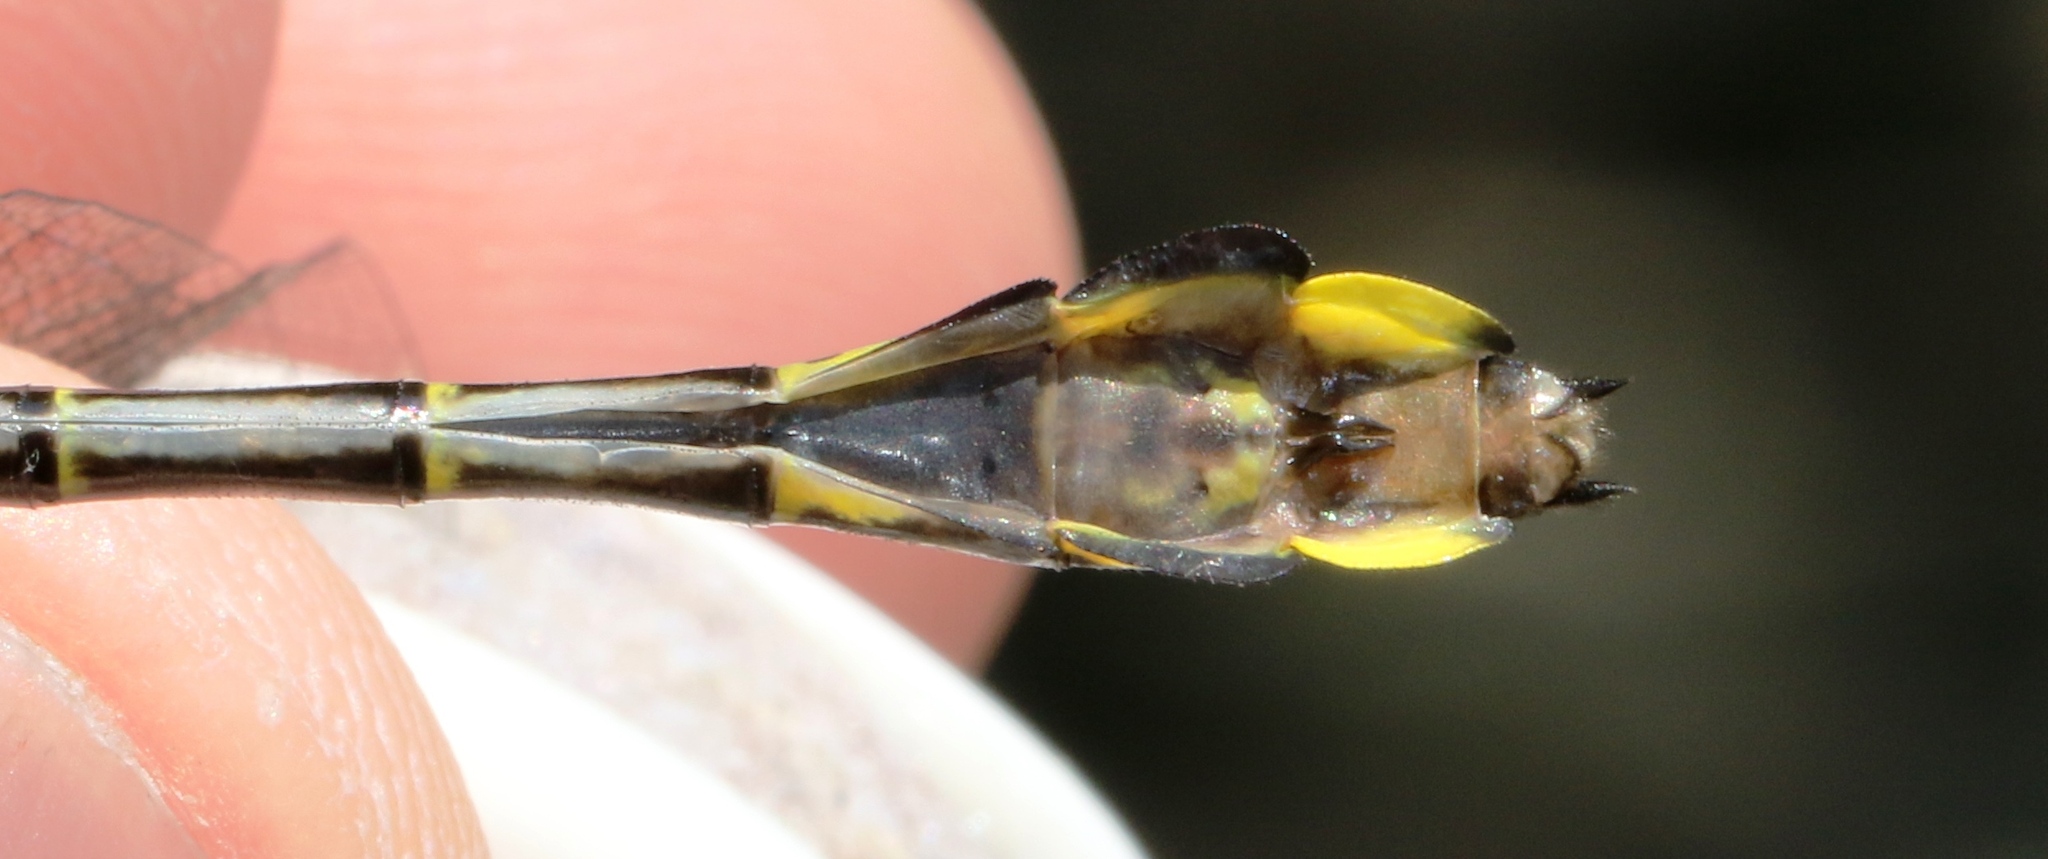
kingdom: Animalia
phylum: Arthropoda
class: Insecta
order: Odonata
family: Gomphidae
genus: Gomphurus
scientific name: Gomphurus vastus
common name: Cobra clubtail
